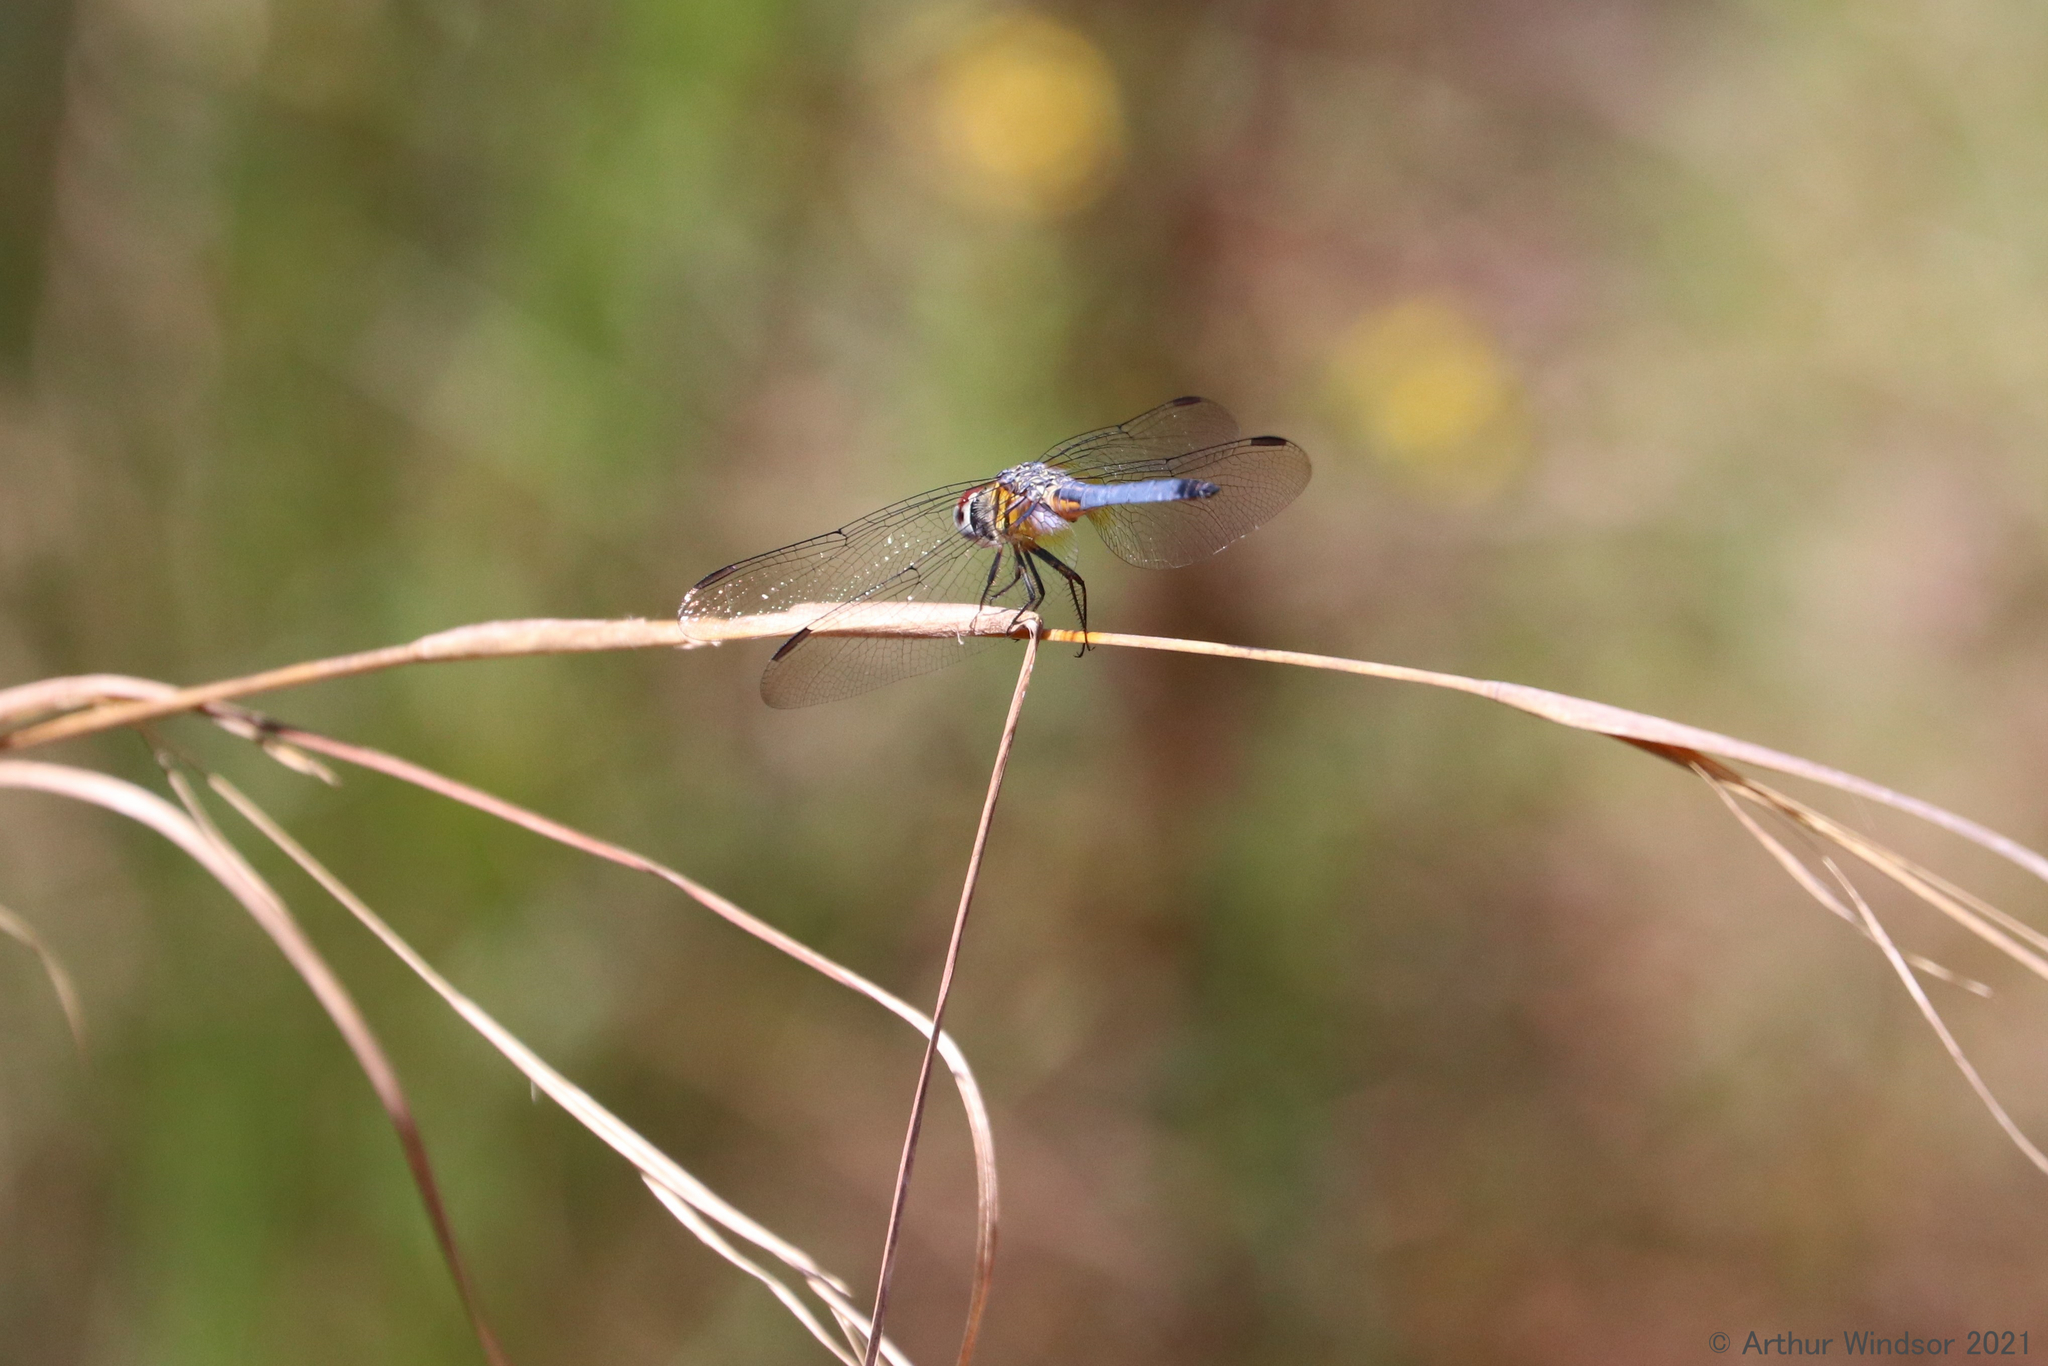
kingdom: Animalia
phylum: Arthropoda
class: Insecta
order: Odonata
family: Libellulidae
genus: Pachydiplax
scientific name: Pachydiplax longipennis
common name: Blue dasher
